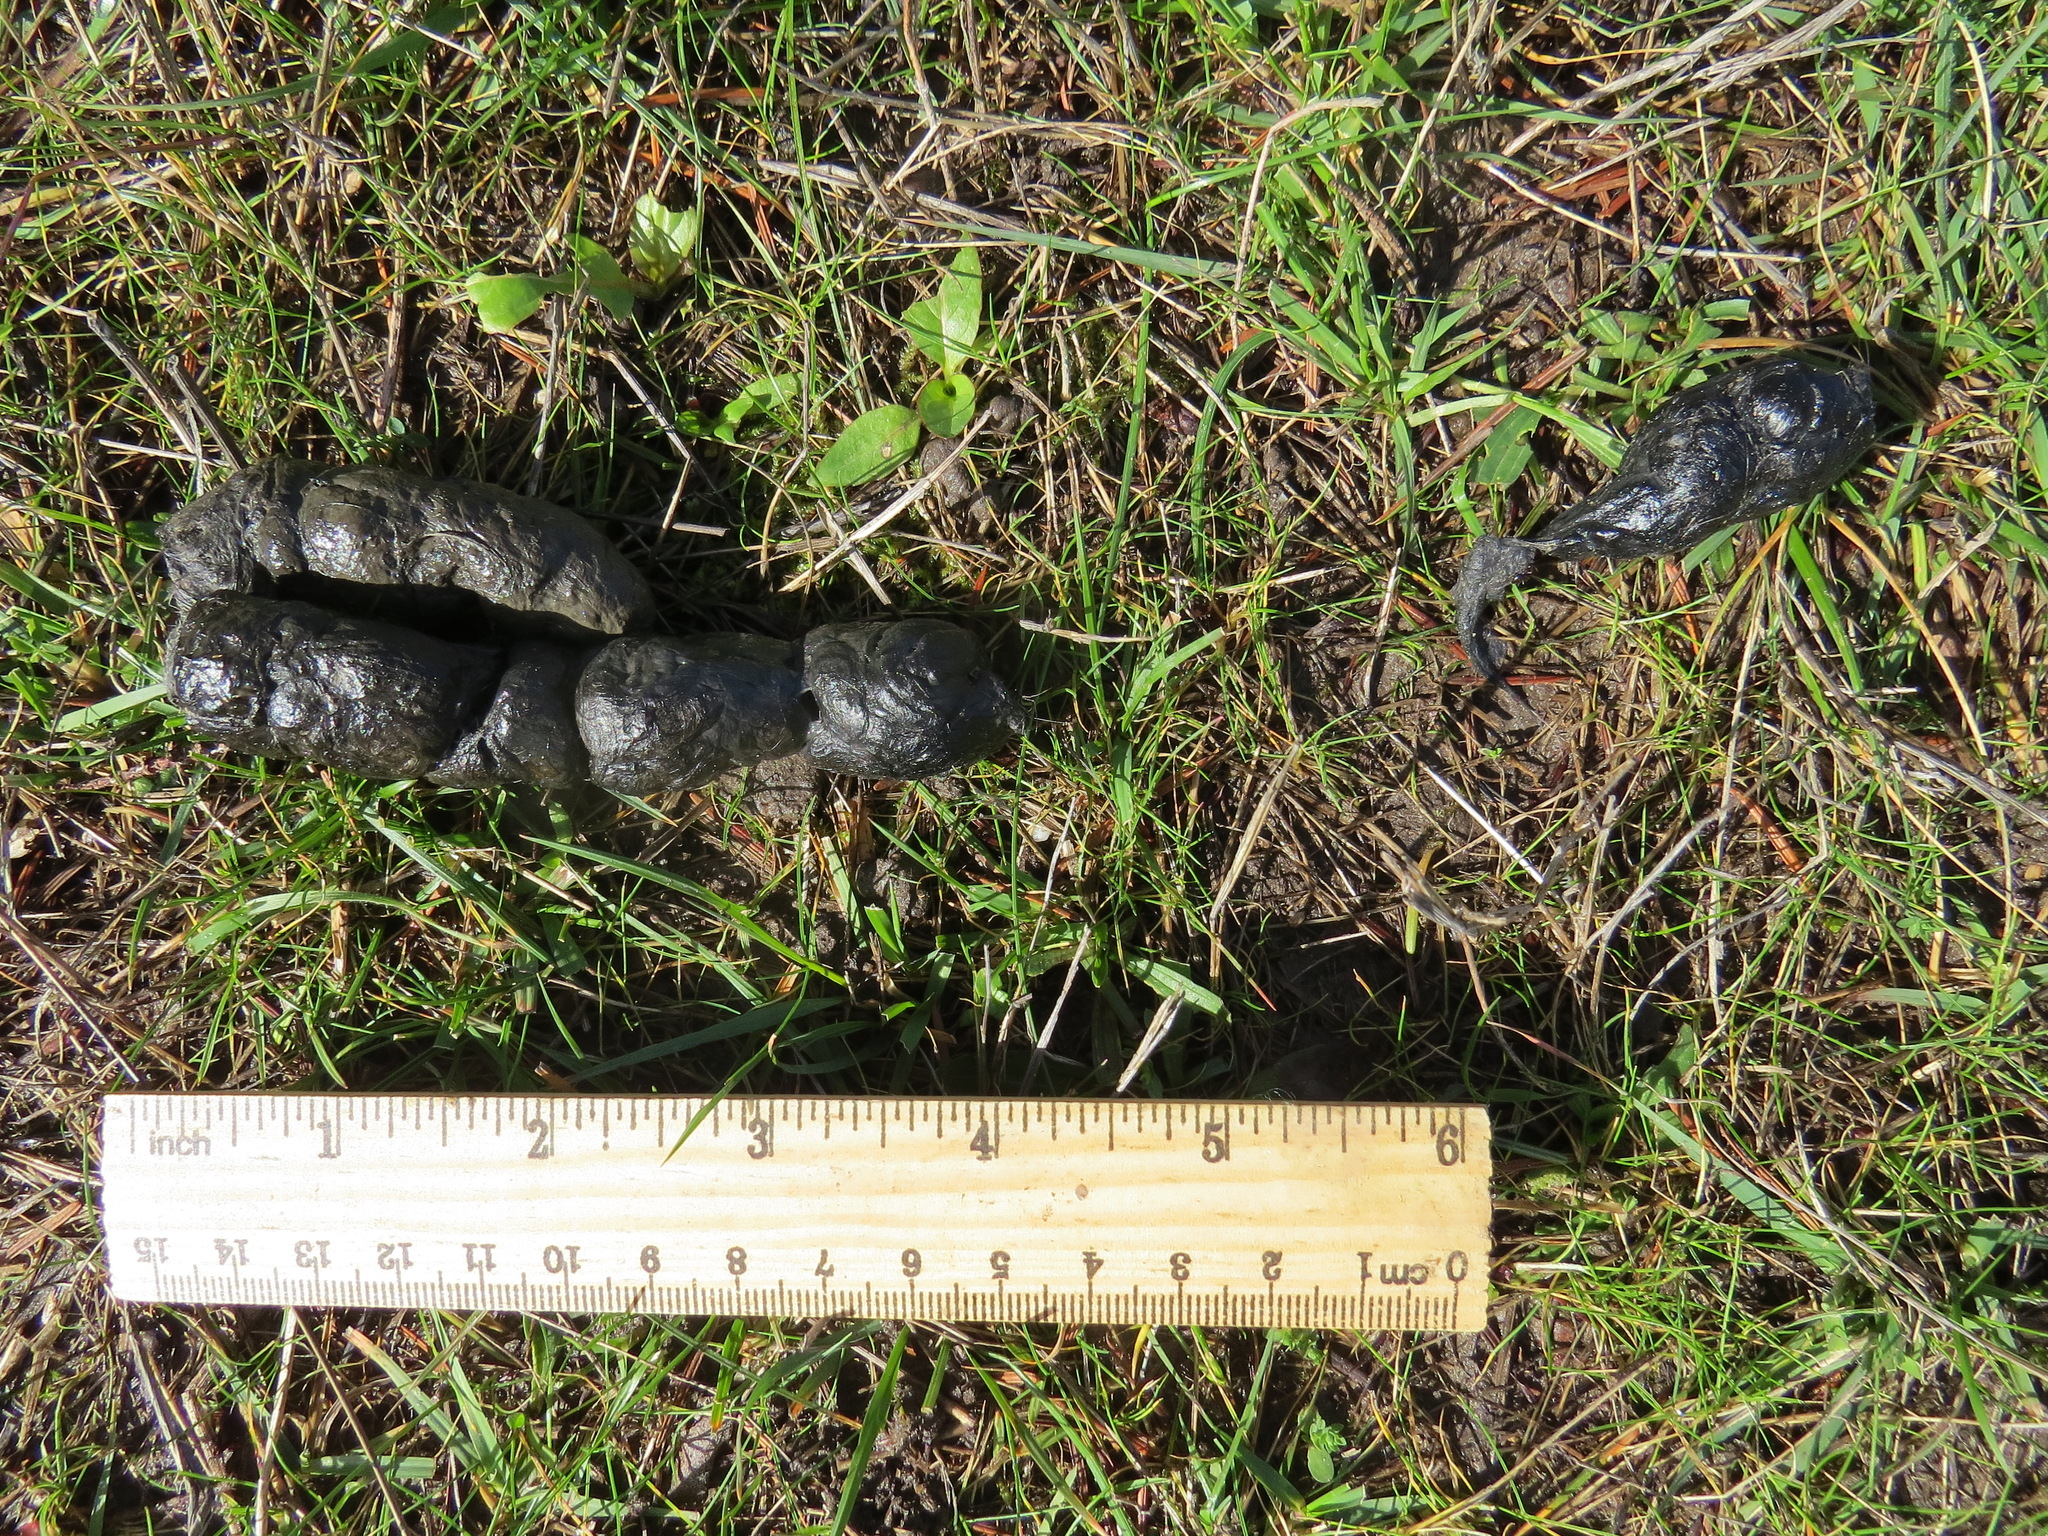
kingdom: Animalia
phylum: Chordata
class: Mammalia
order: Carnivora
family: Felidae
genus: Lynx
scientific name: Lynx rufus
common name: Bobcat
